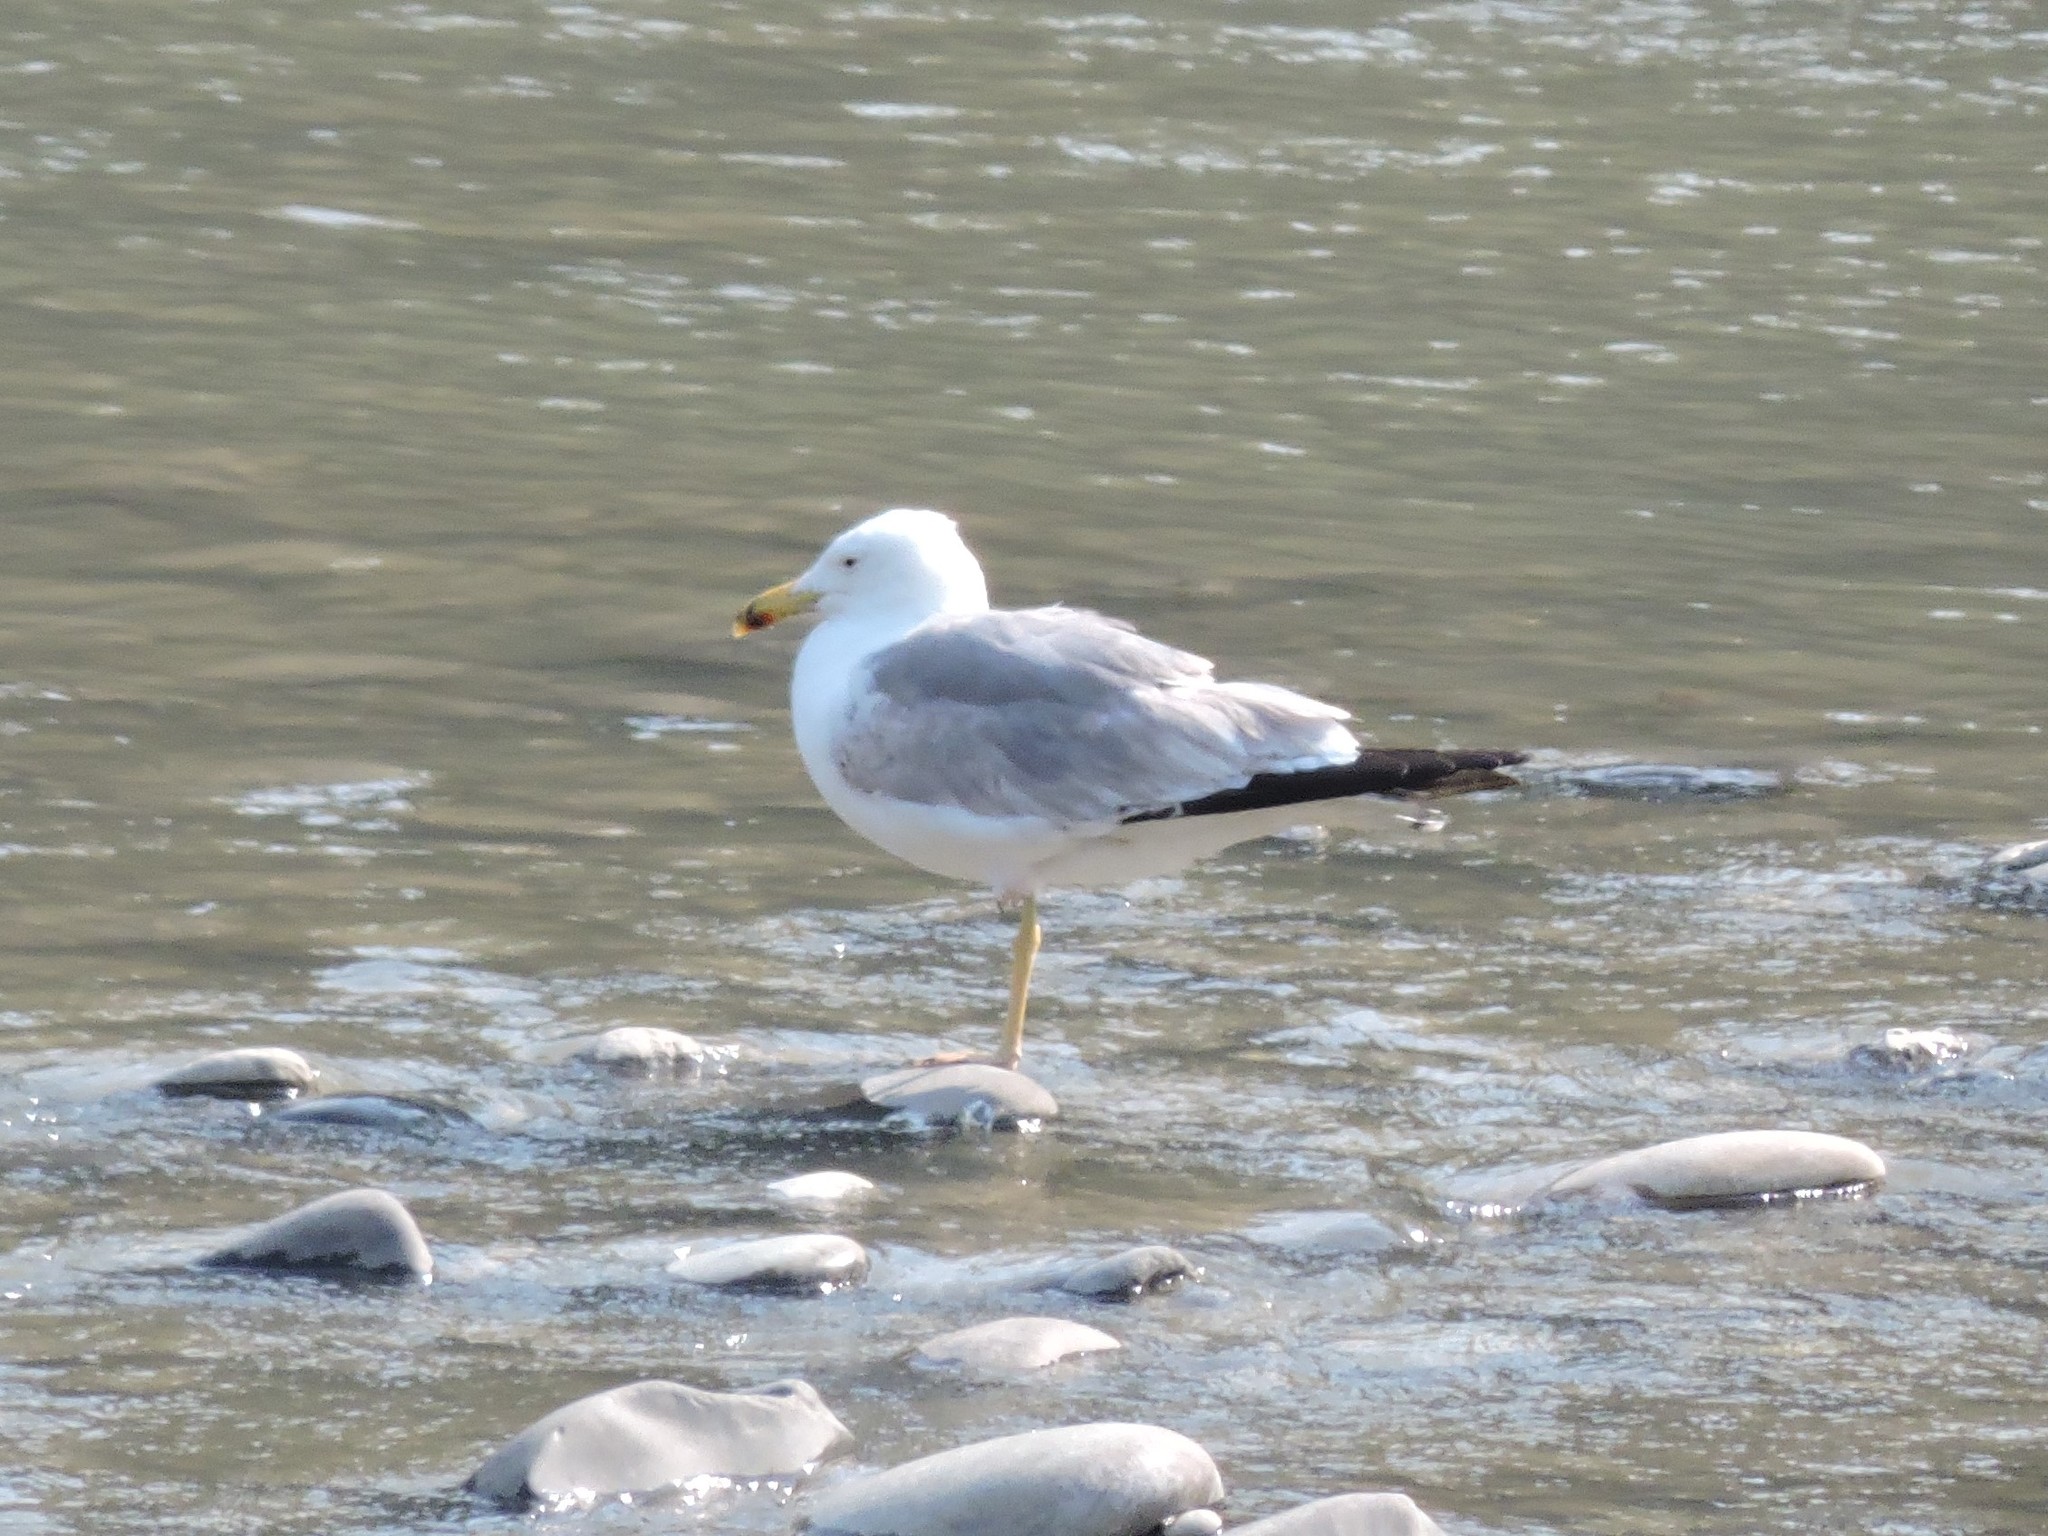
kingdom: Animalia
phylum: Chordata
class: Aves
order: Charadriiformes
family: Laridae
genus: Larus
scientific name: Larus armenicus
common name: Armenian gull
